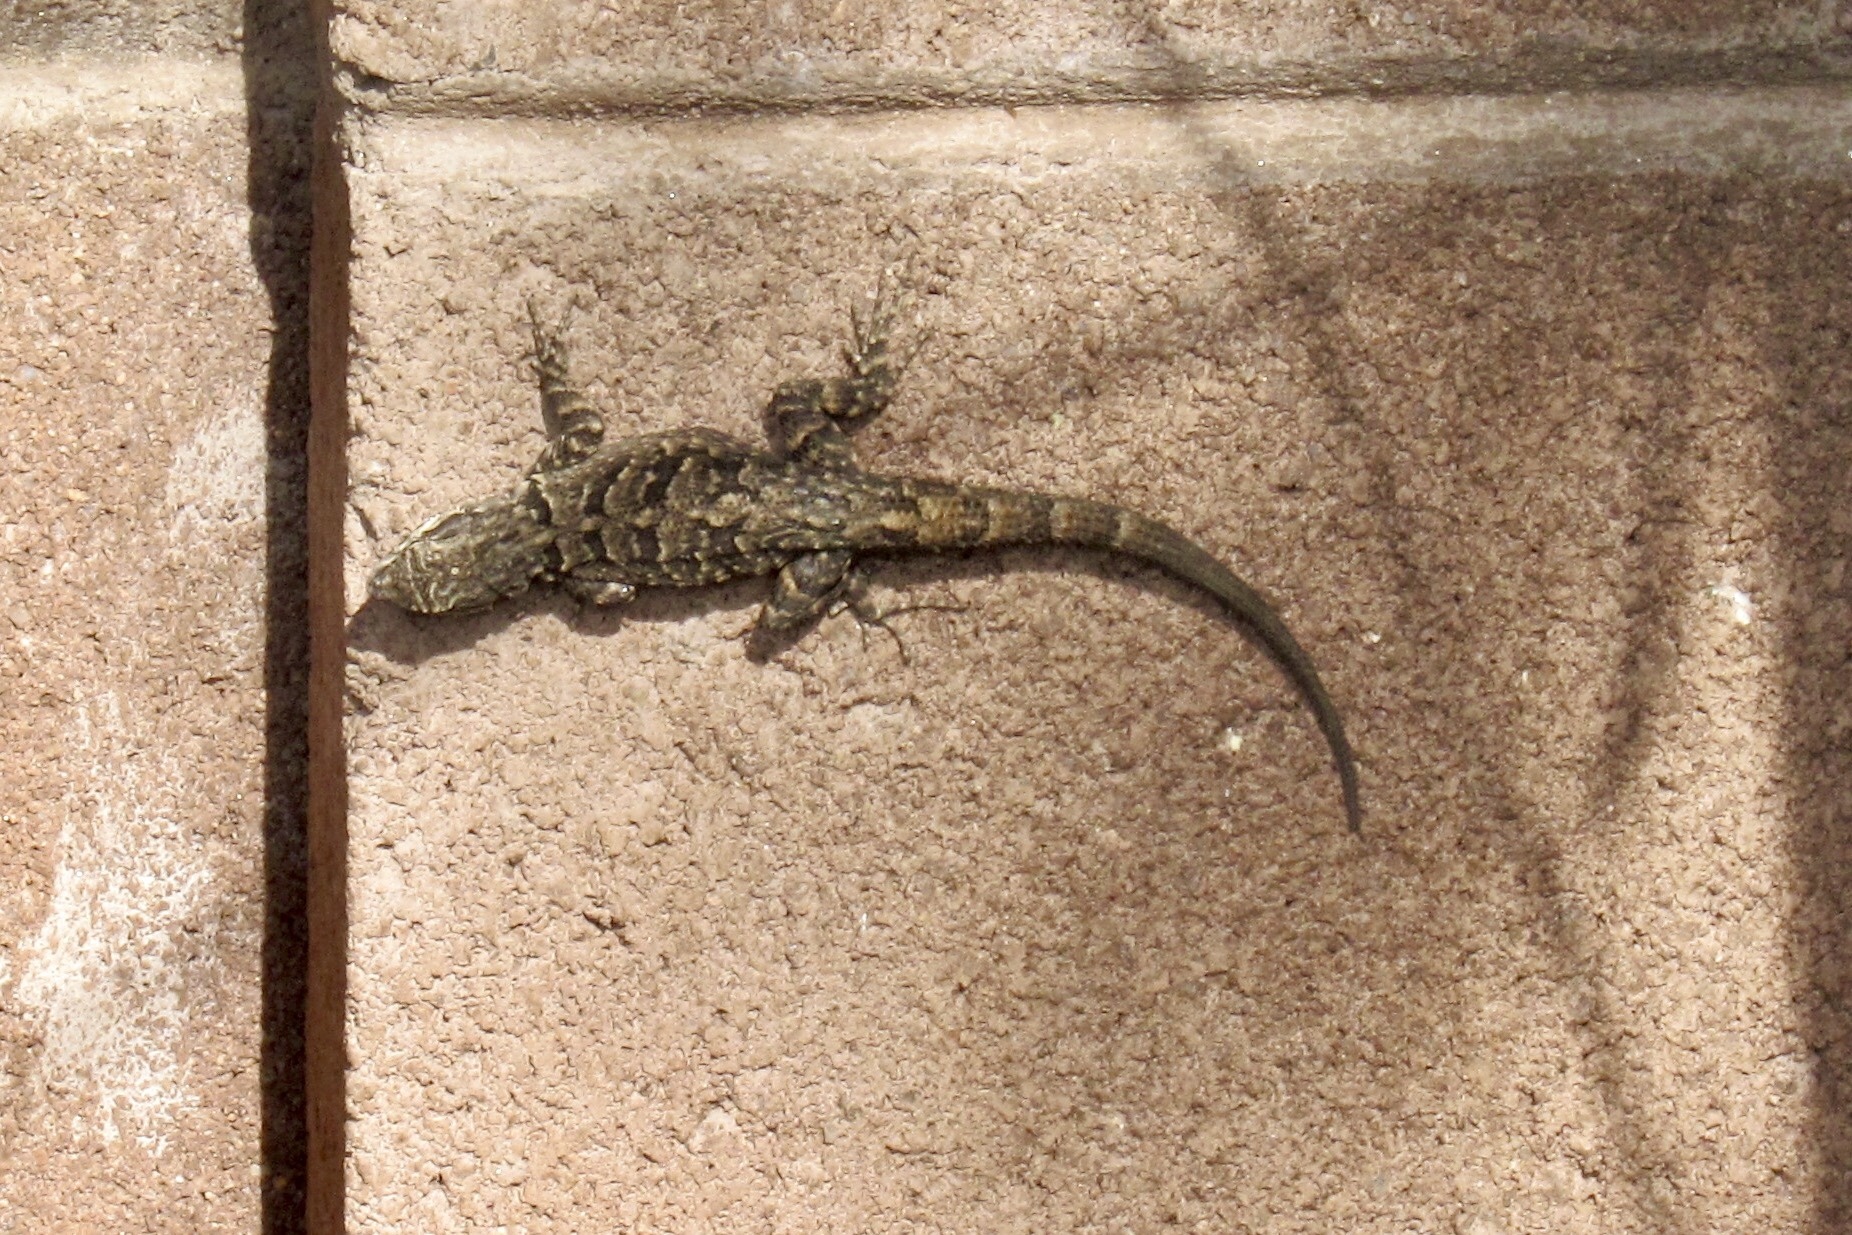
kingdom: Animalia
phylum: Chordata
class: Squamata
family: Phrynosomatidae
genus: Urosaurus
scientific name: Urosaurus ornatus
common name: Ornate tree lizard
